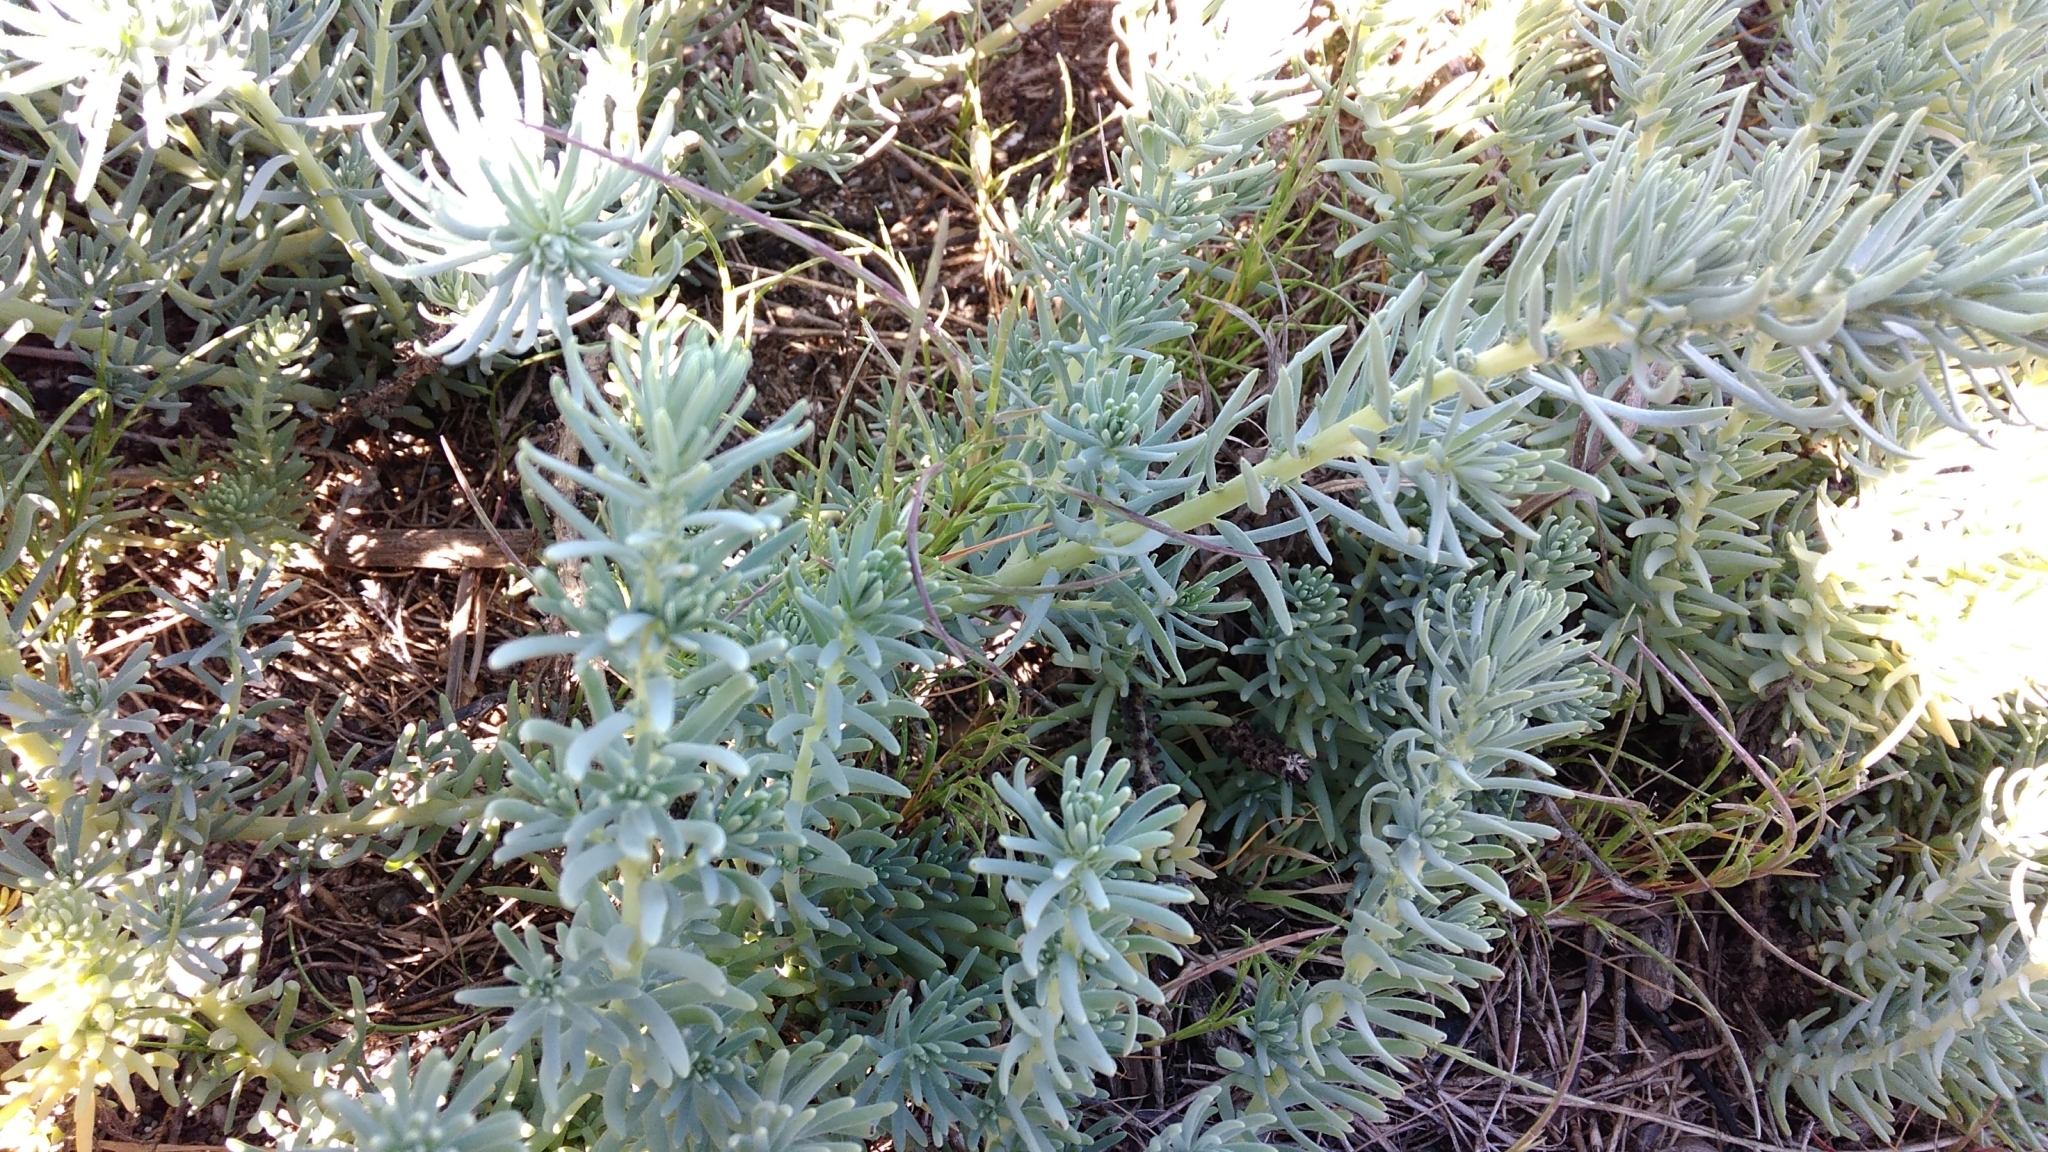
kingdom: Plantae
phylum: Tracheophyta
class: Magnoliopsida
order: Caryophyllales
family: Amaranthaceae
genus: Suaeda
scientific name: Suaeda californica
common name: California sea-blite
